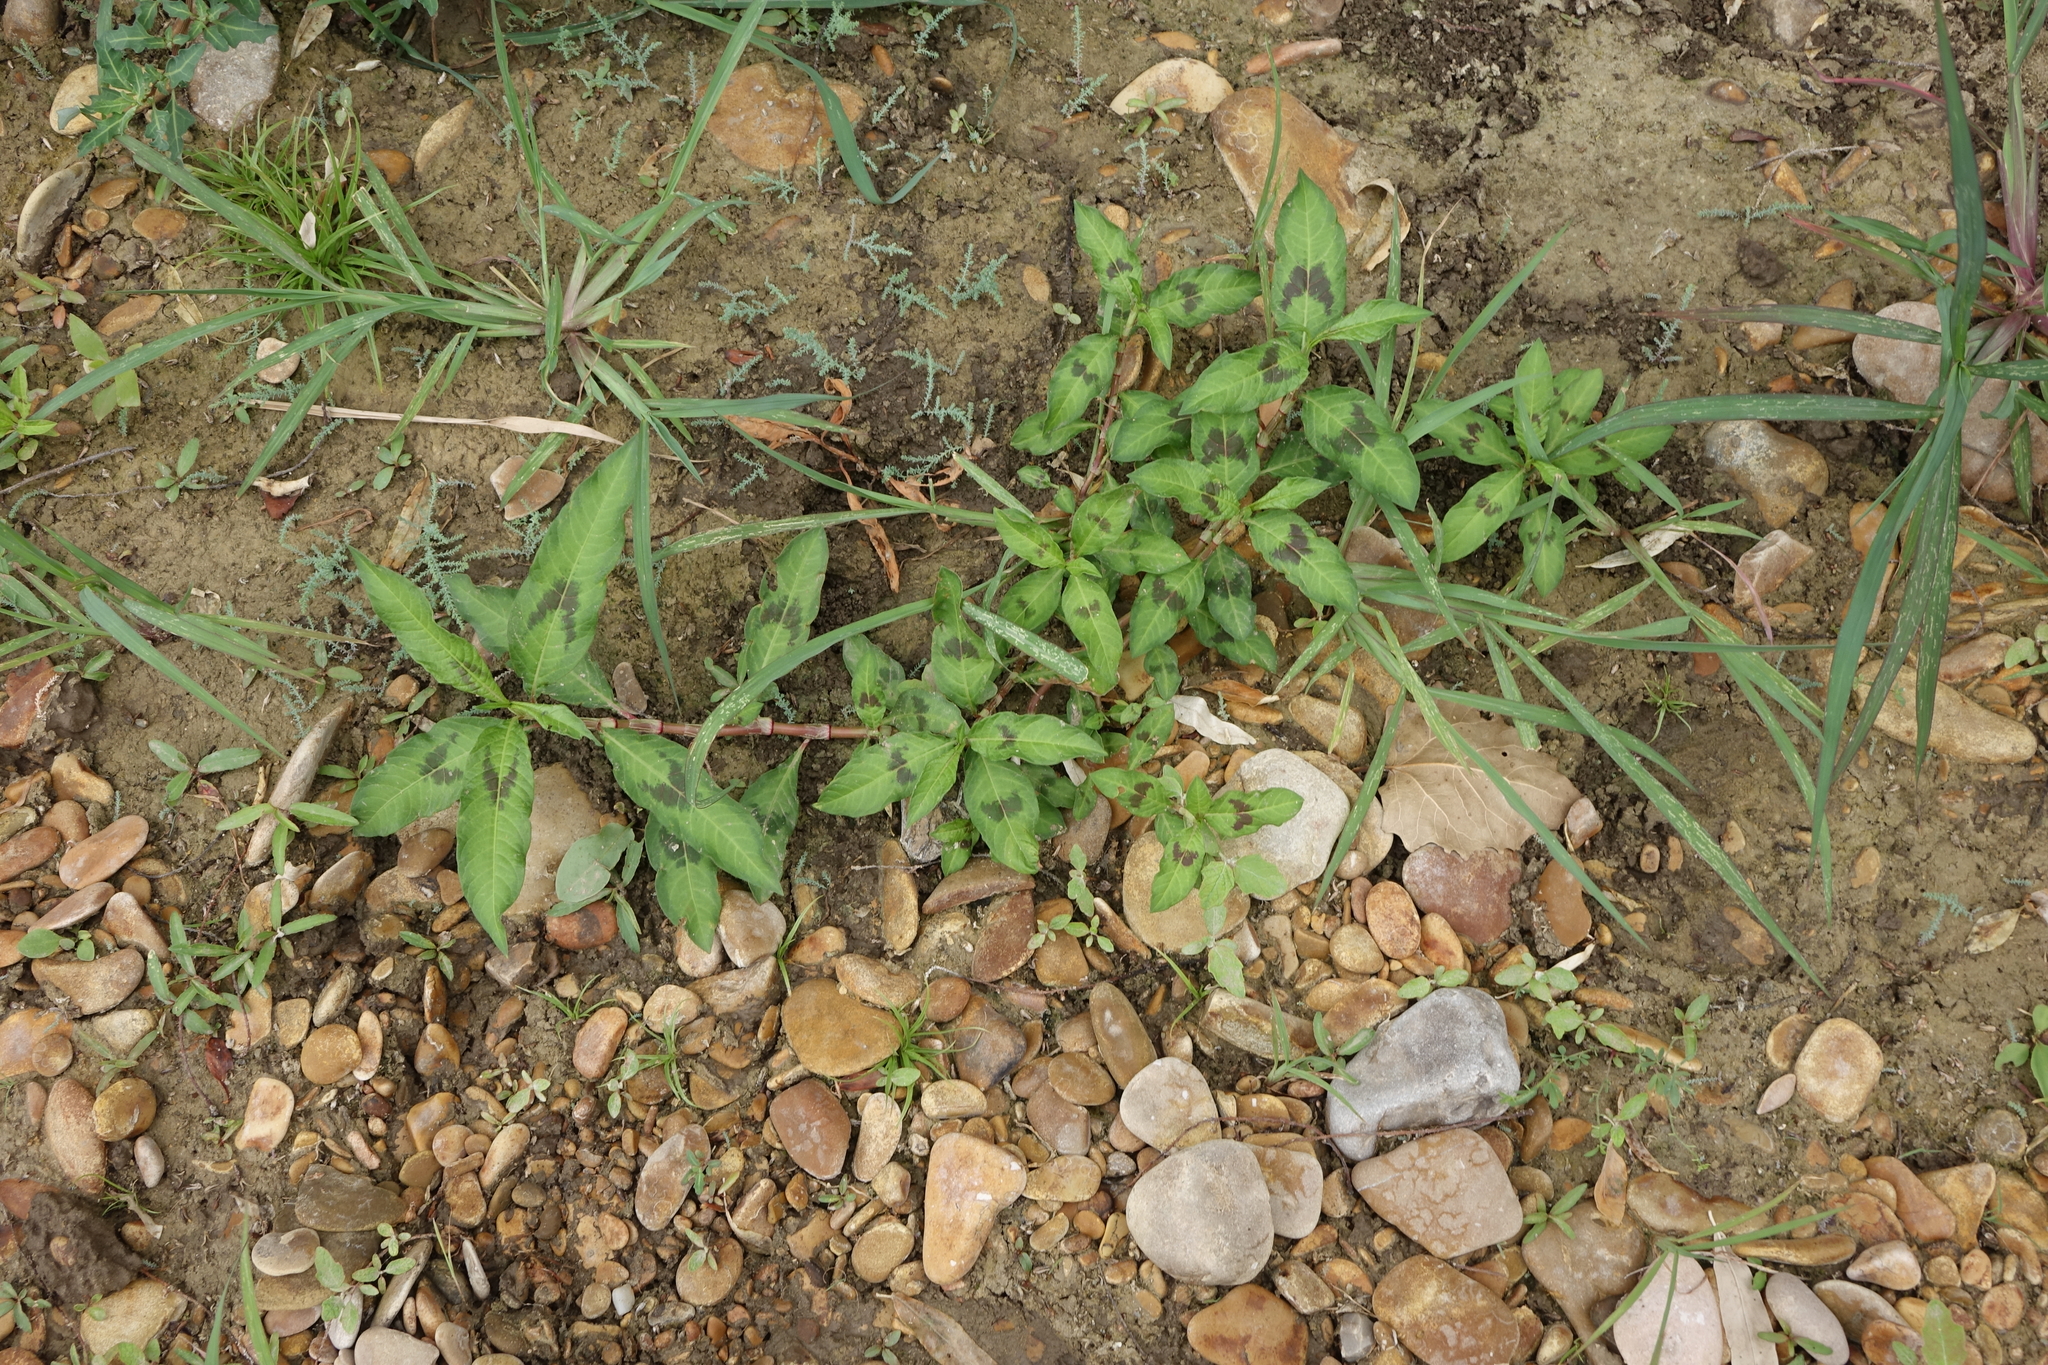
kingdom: Plantae
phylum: Tracheophyta
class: Magnoliopsida
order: Caryophyllales
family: Polygonaceae
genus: Persicaria
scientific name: Persicaria maculosa
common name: Redshank
